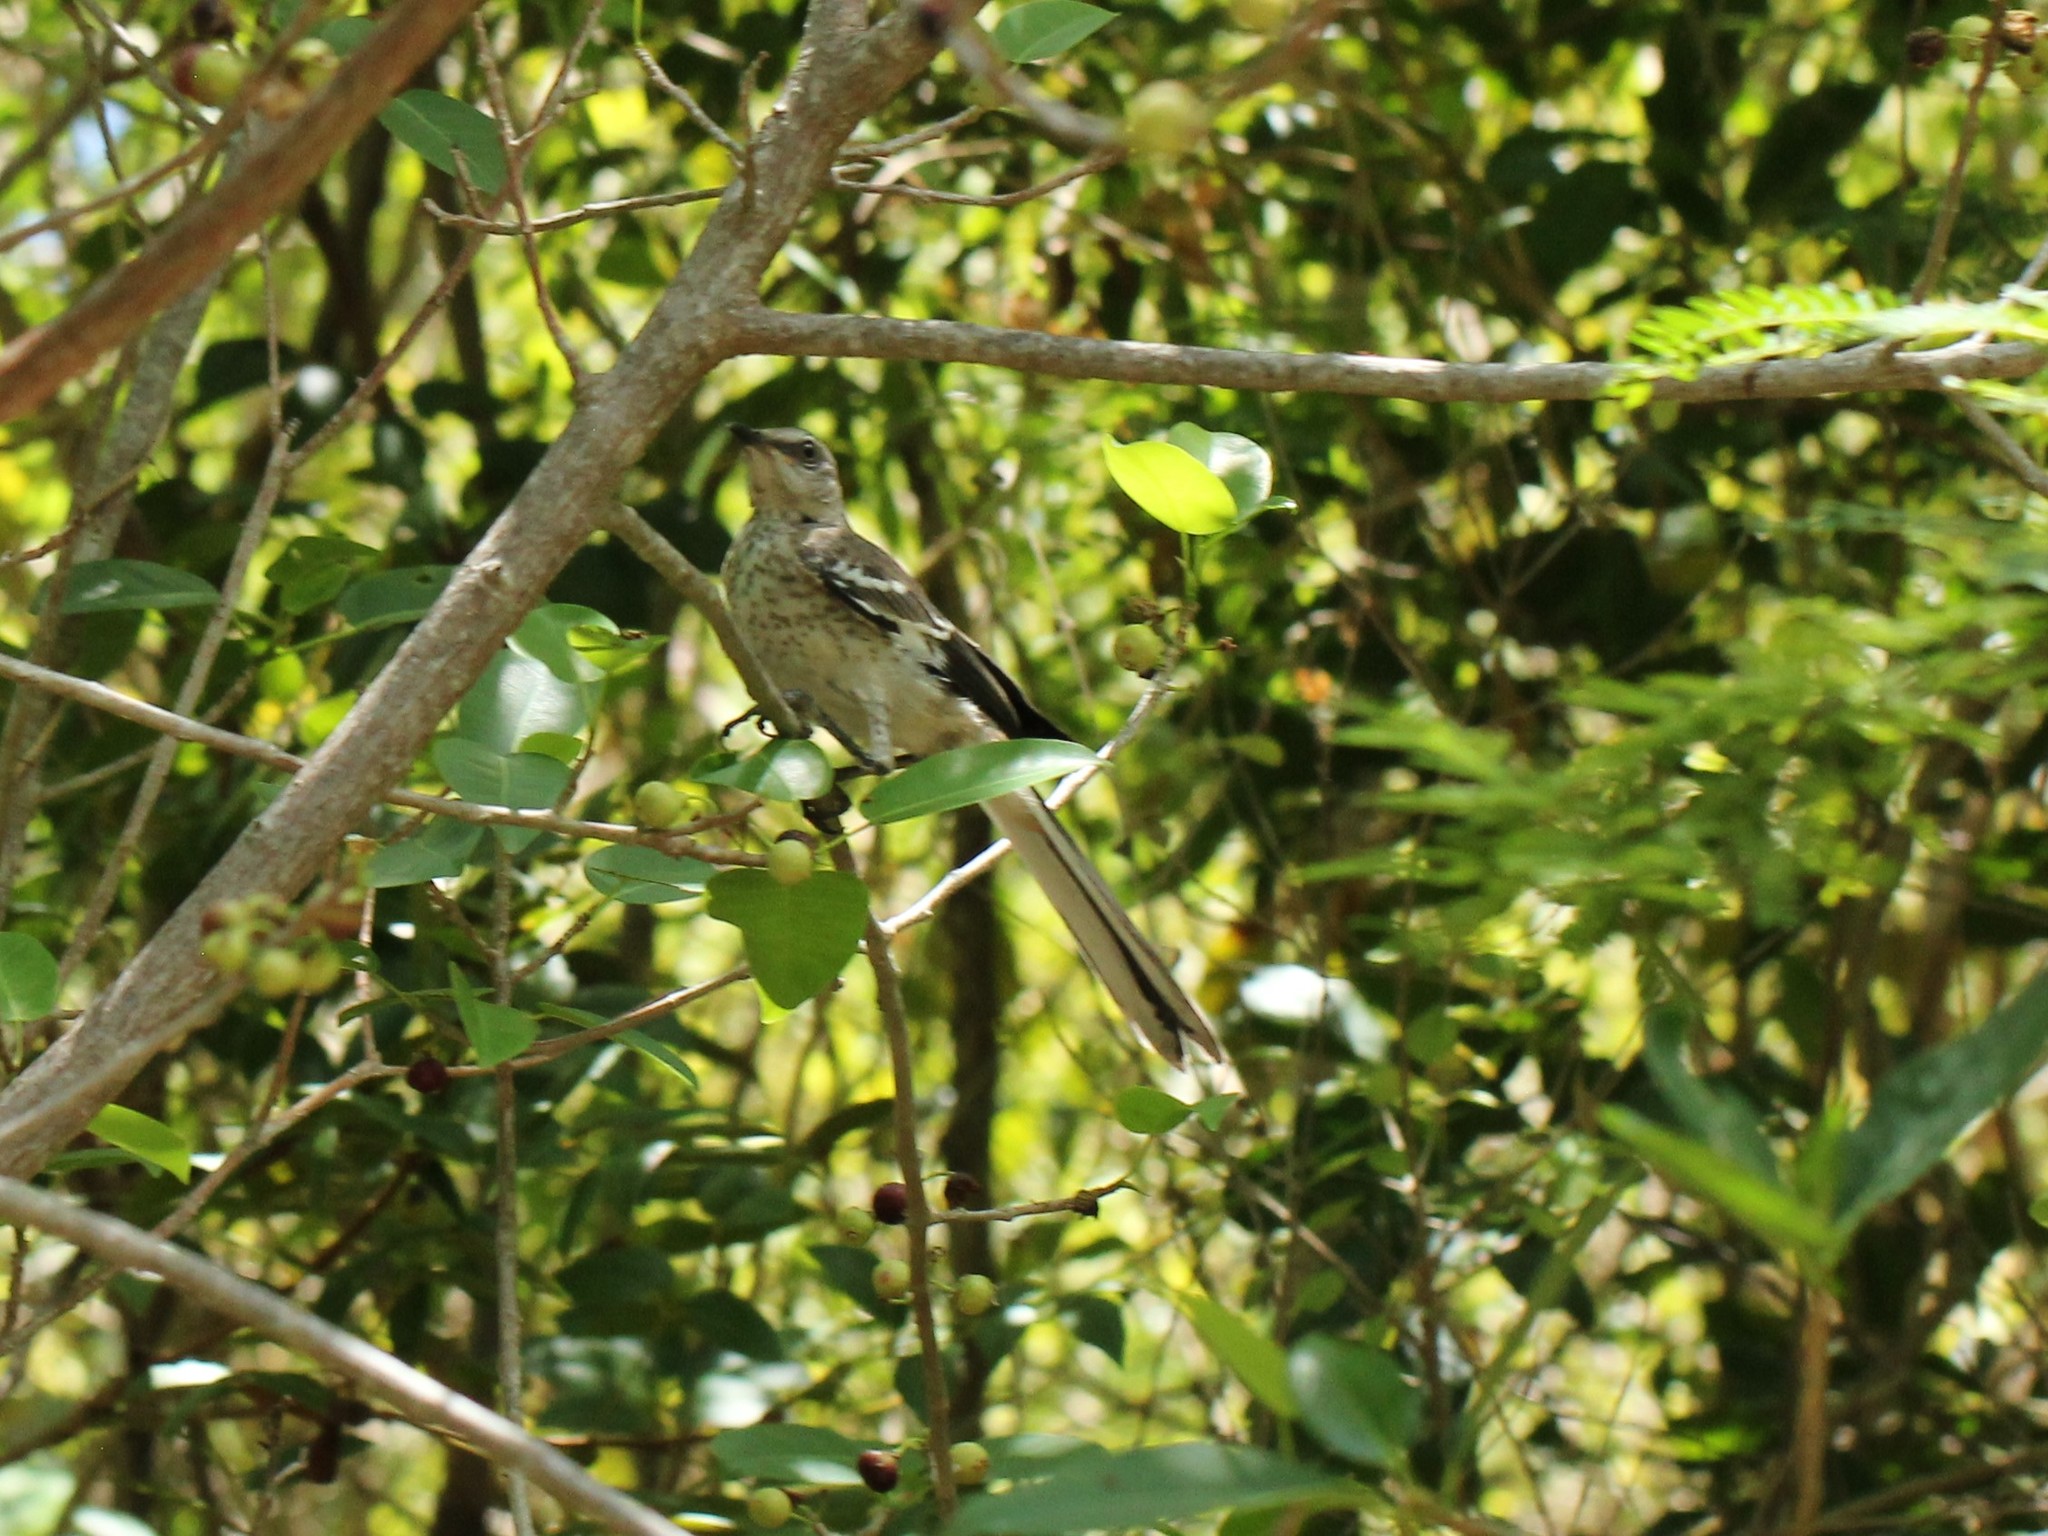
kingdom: Animalia
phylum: Chordata
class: Aves
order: Passeriformes
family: Mimidae
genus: Mimus
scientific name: Mimus polyglottos
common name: Northern mockingbird
